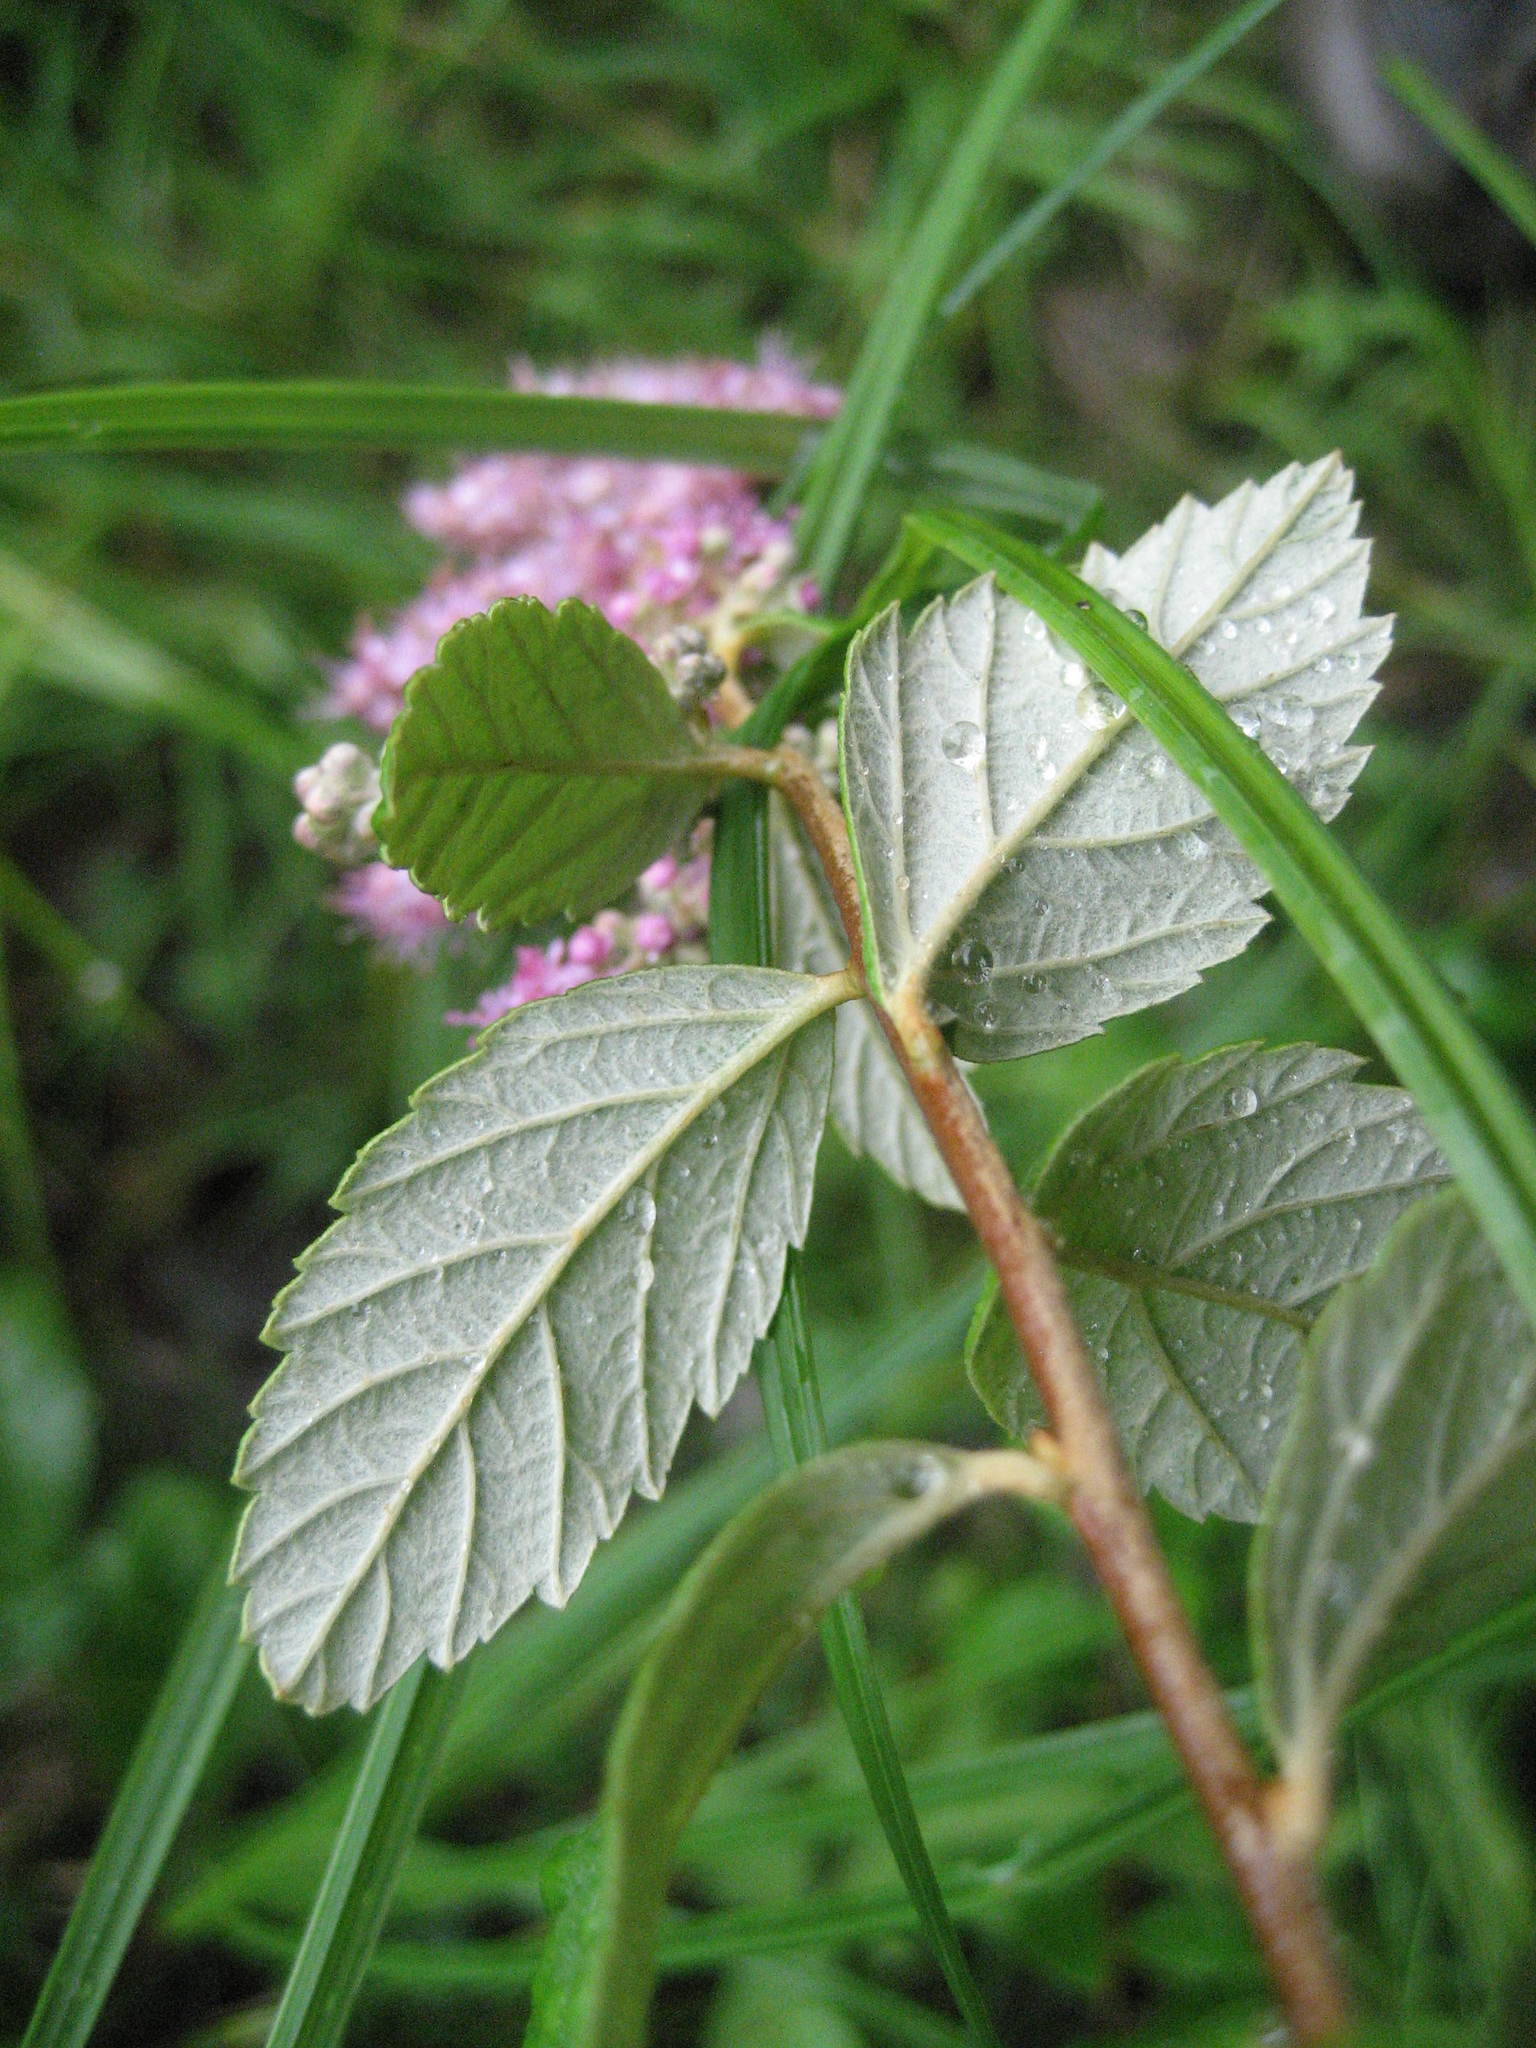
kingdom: Plantae
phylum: Tracheophyta
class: Magnoliopsida
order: Rosales
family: Rosaceae
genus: Spiraea
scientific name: Spiraea tomentosa
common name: Hardhack
